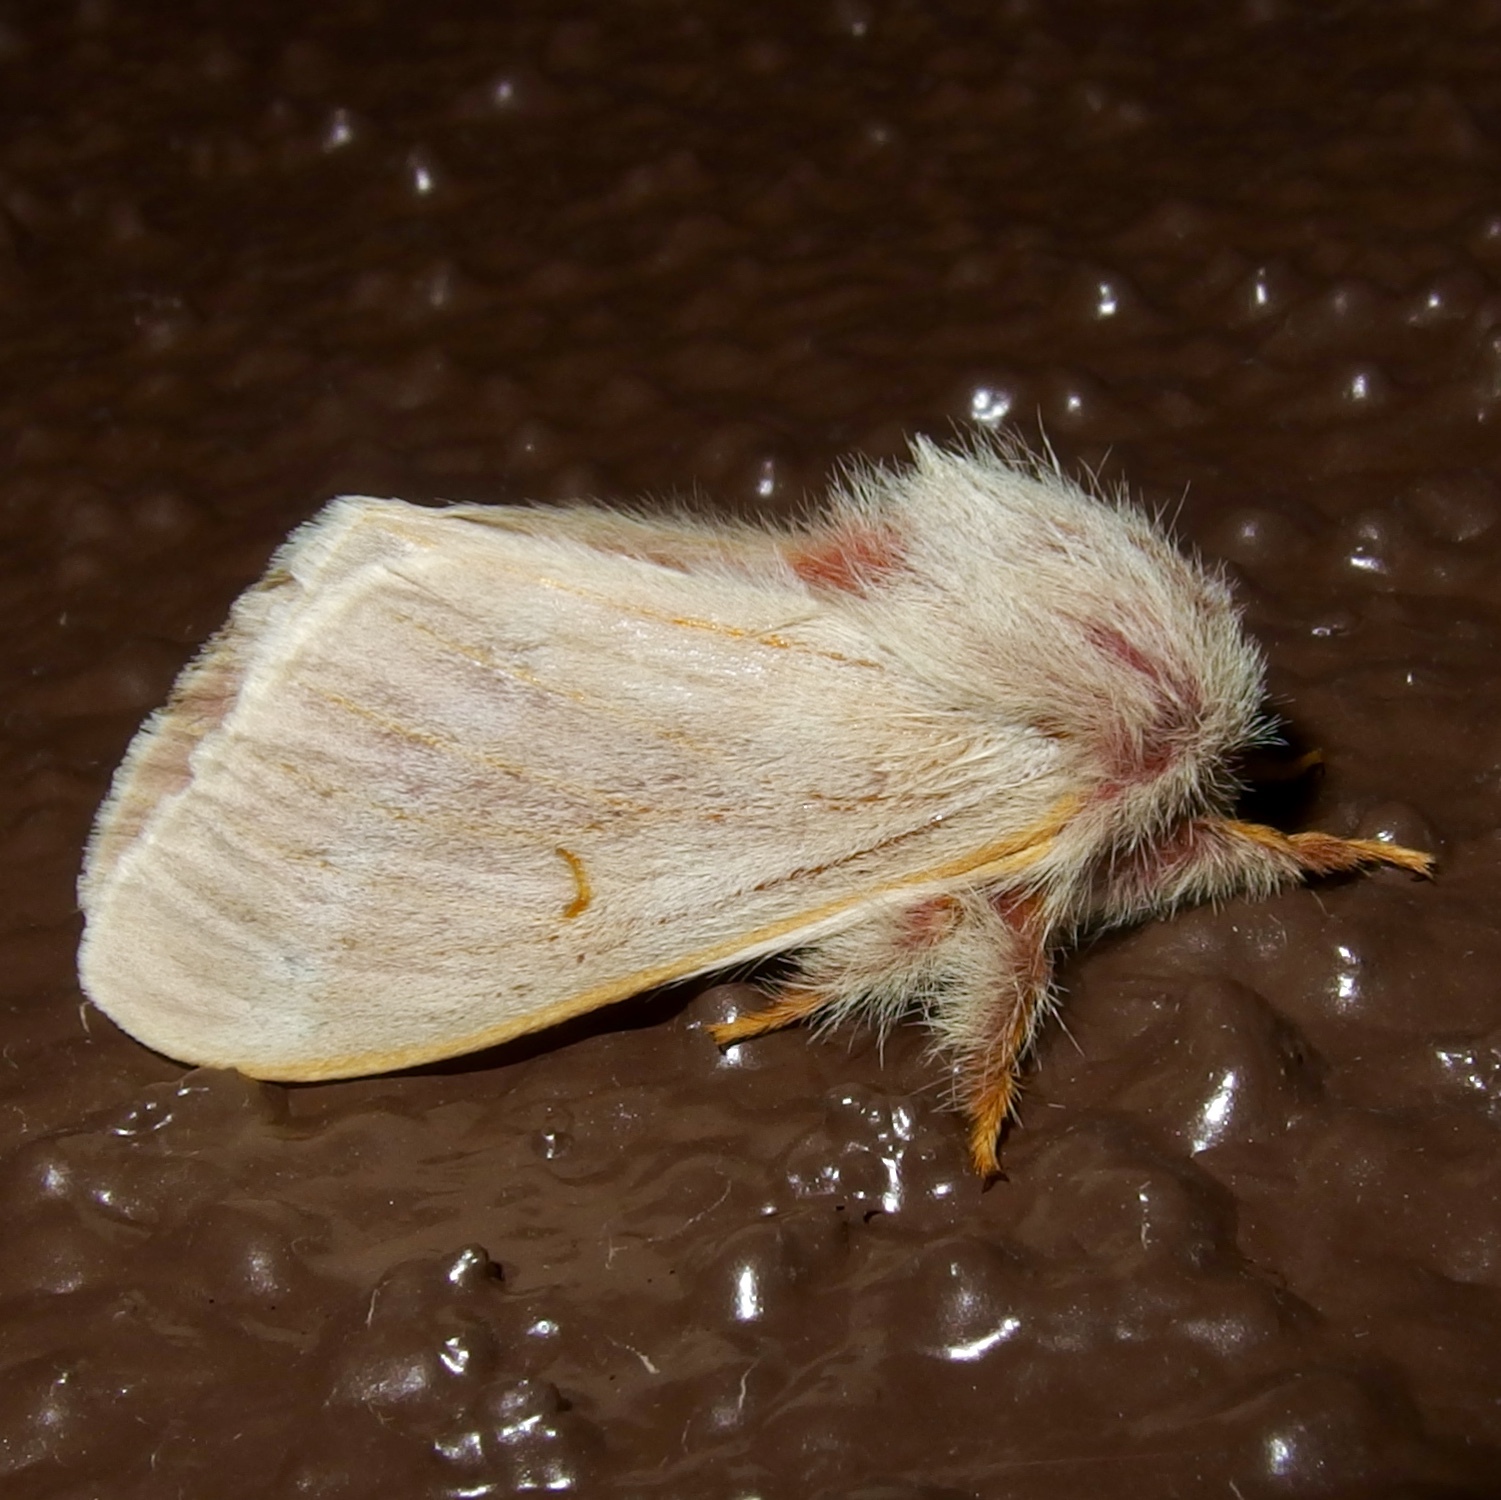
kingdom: Animalia
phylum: Arthropoda
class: Insecta
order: Lepidoptera
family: Saturniidae
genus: Hemileuca
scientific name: Hemileuca hualapai
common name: Hualapai buckmoth
